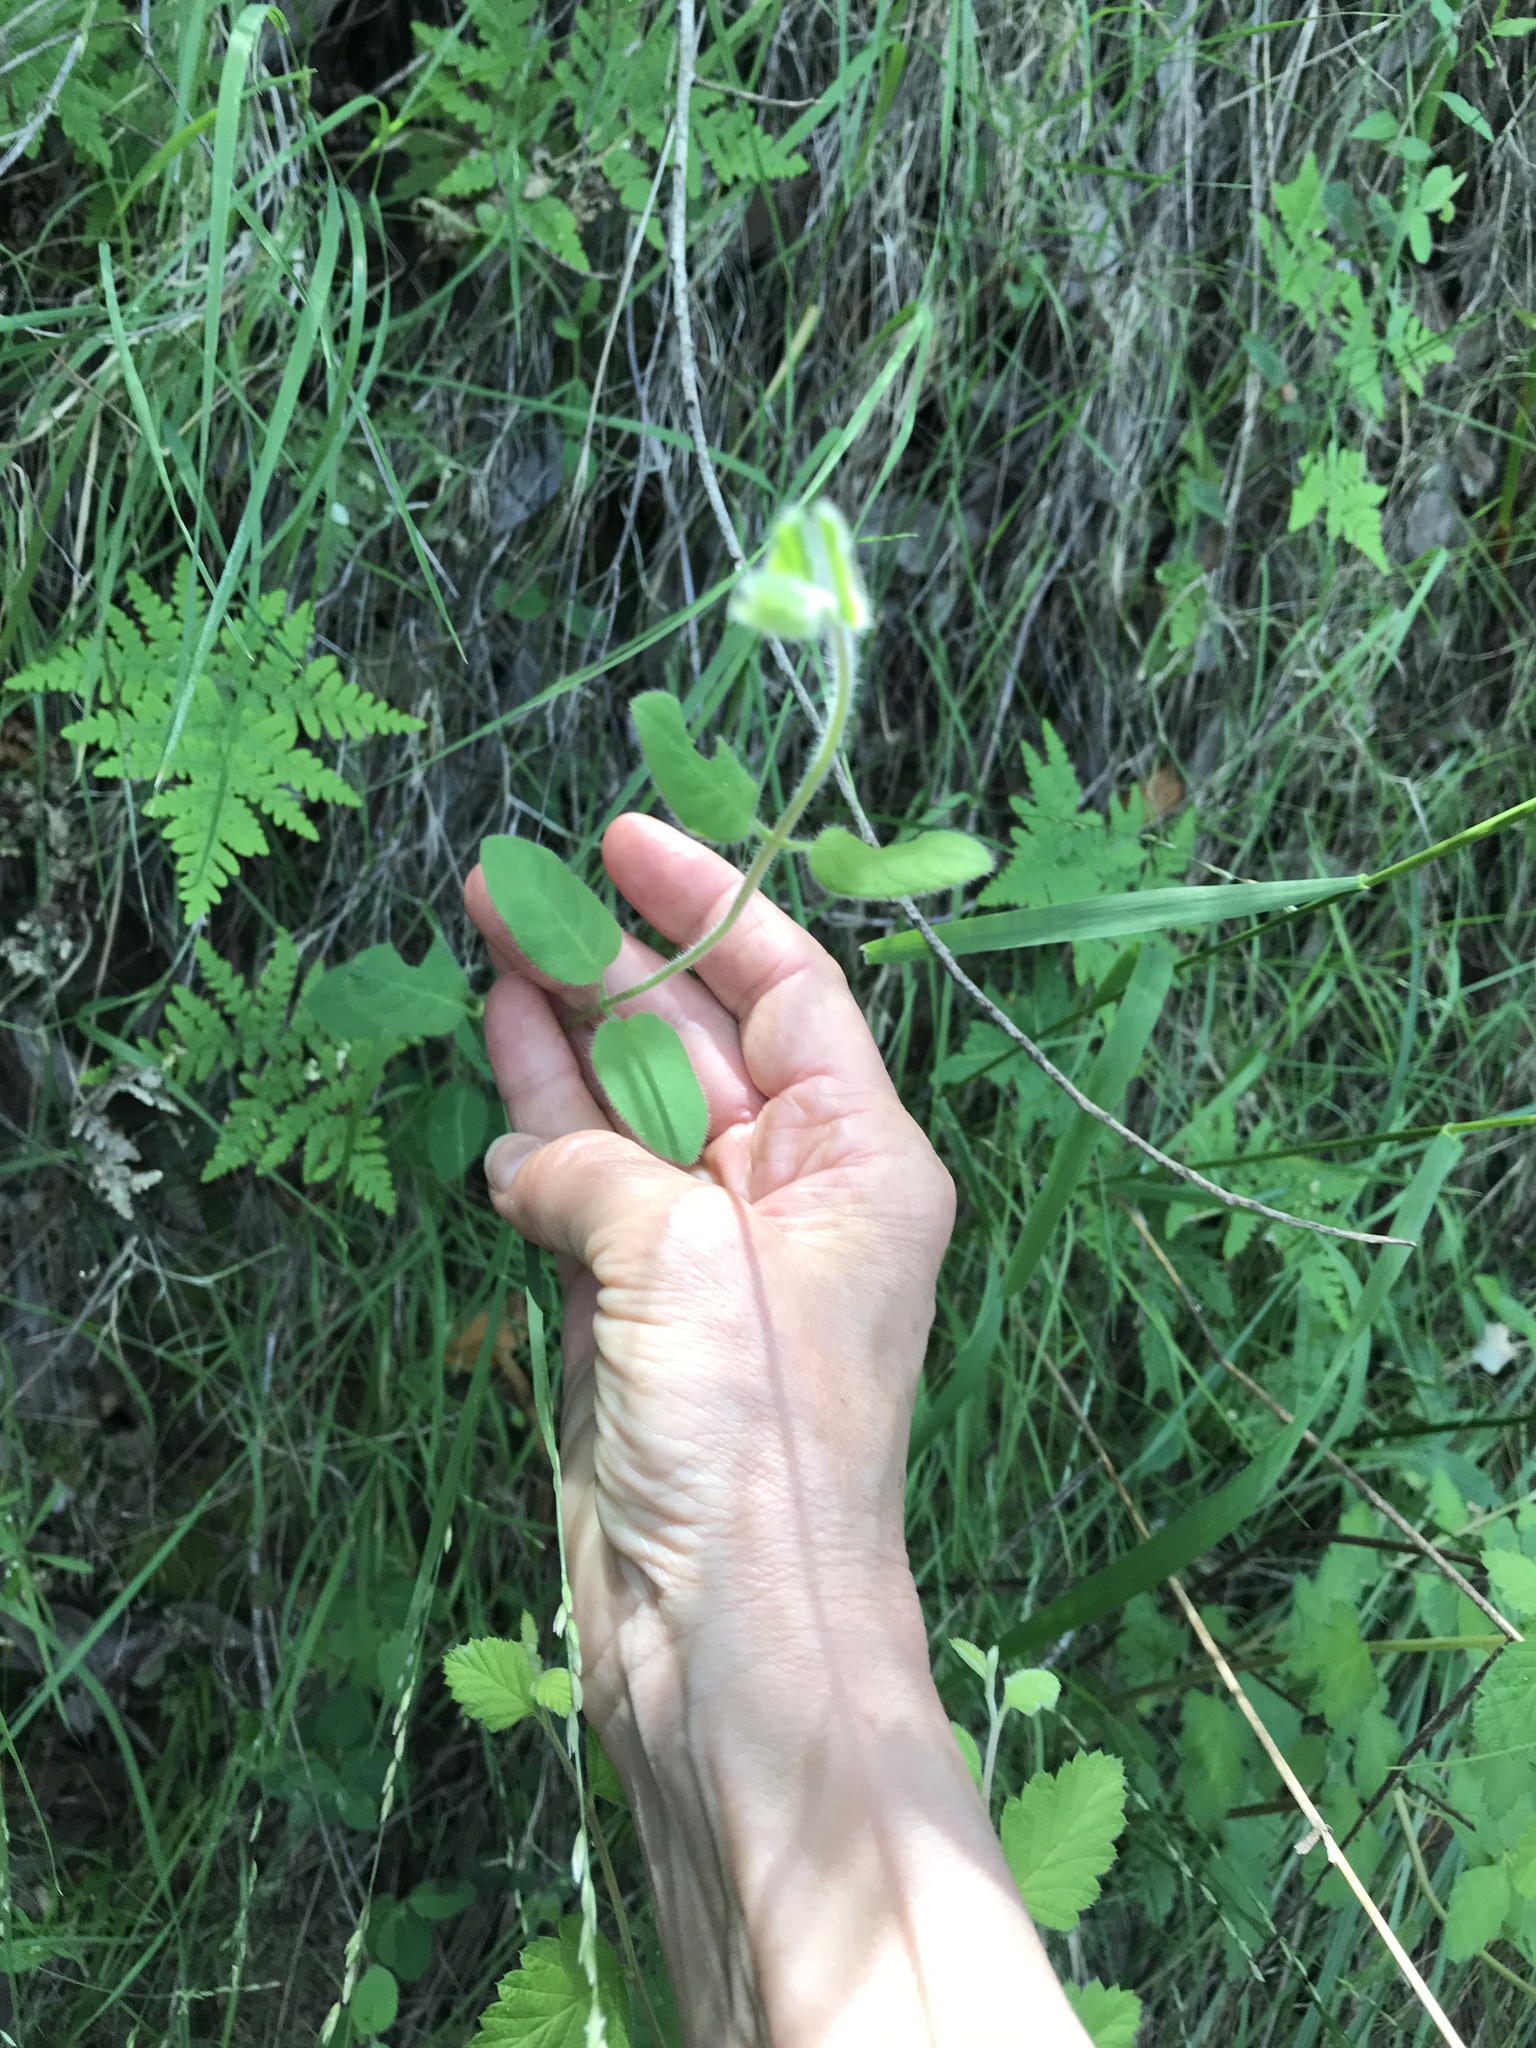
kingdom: Plantae
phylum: Tracheophyta
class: Magnoliopsida
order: Dipsacales
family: Caprifoliaceae
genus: Lonicera
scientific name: Lonicera hispidula
